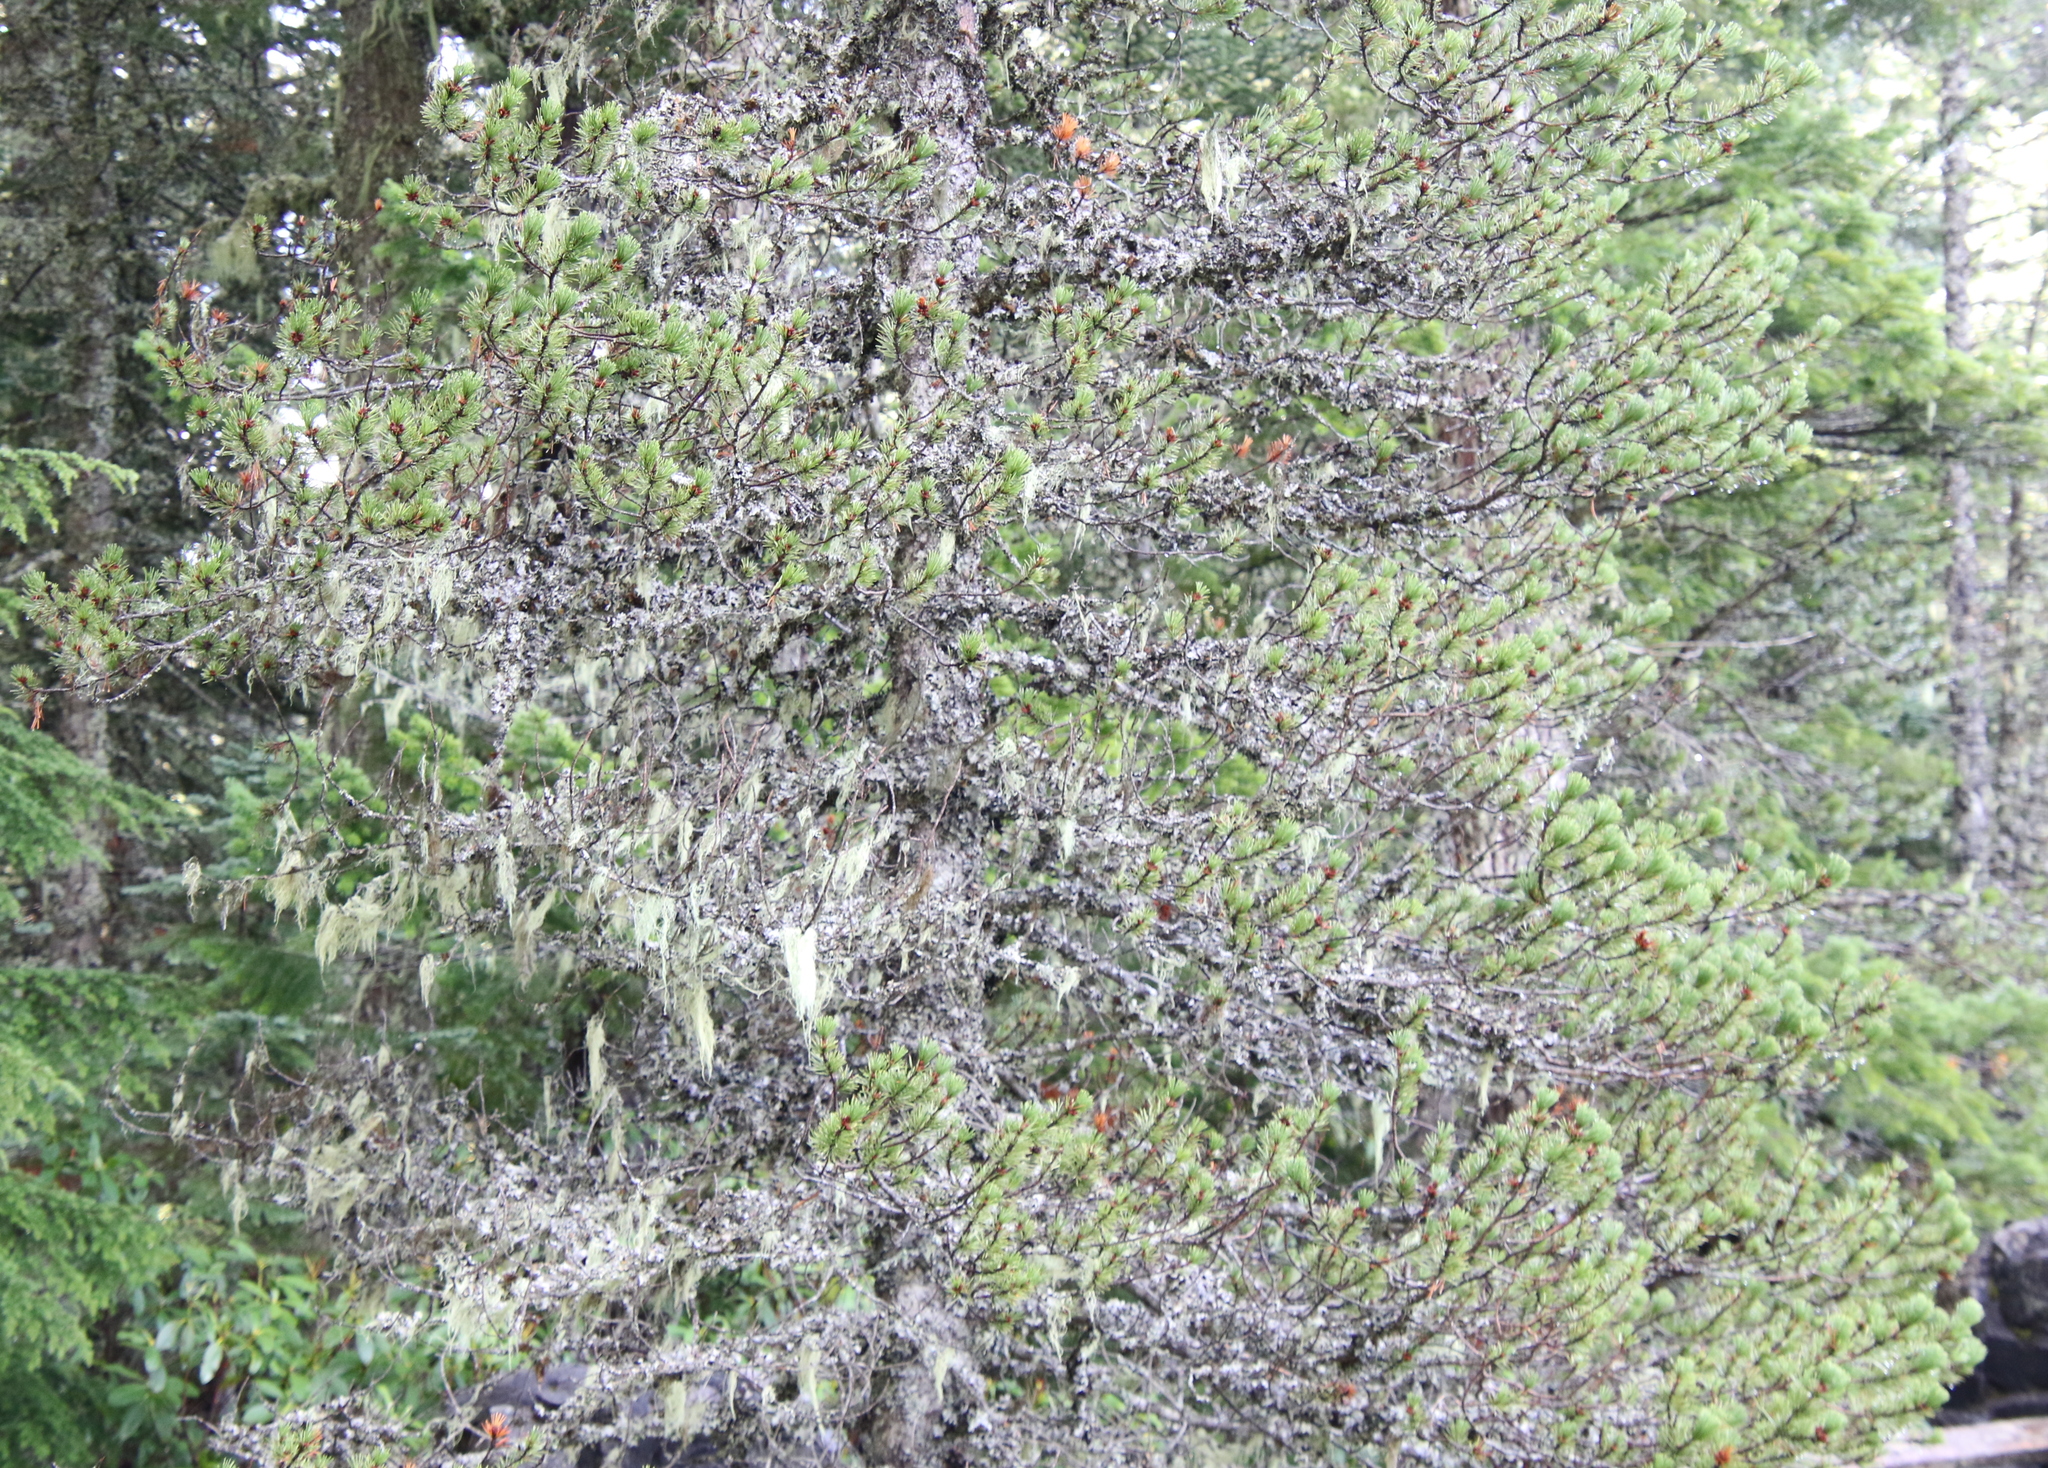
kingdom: Plantae
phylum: Tracheophyta
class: Pinopsida
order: Pinales
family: Pinaceae
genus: Pinus
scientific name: Pinus contorta
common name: Lodgepole pine
